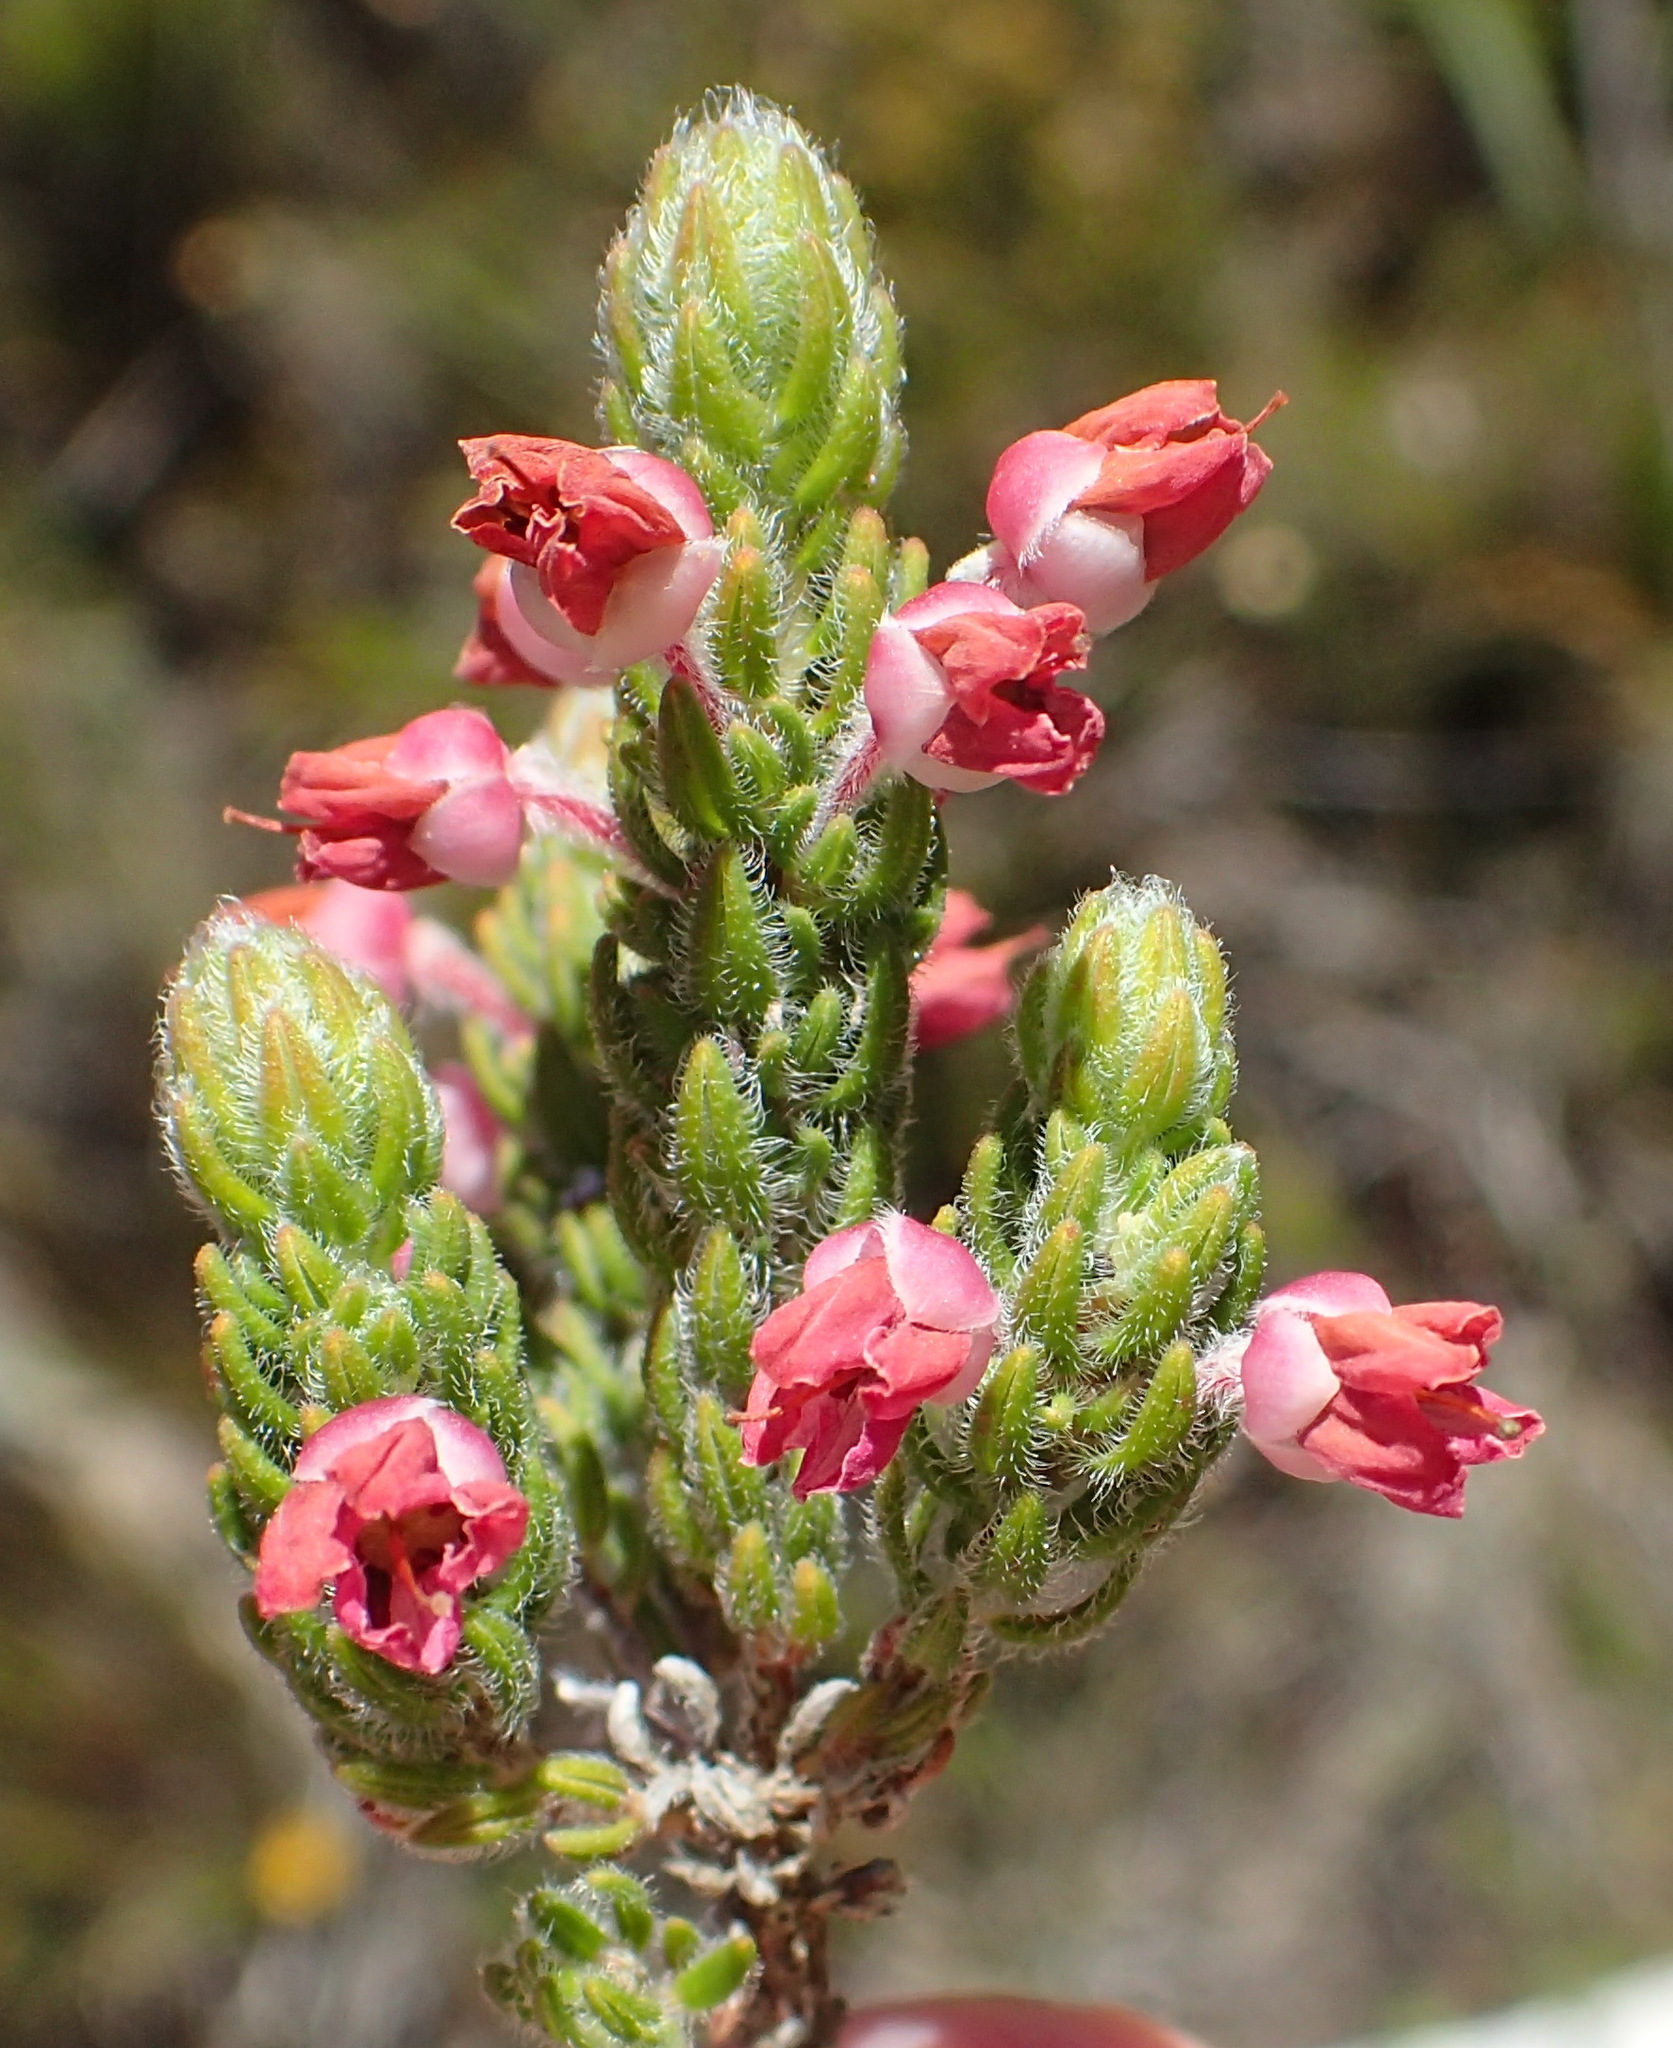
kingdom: Plantae
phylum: Tracheophyta
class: Magnoliopsida
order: Ericales
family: Ericaceae
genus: Erica
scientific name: Erica nervata
